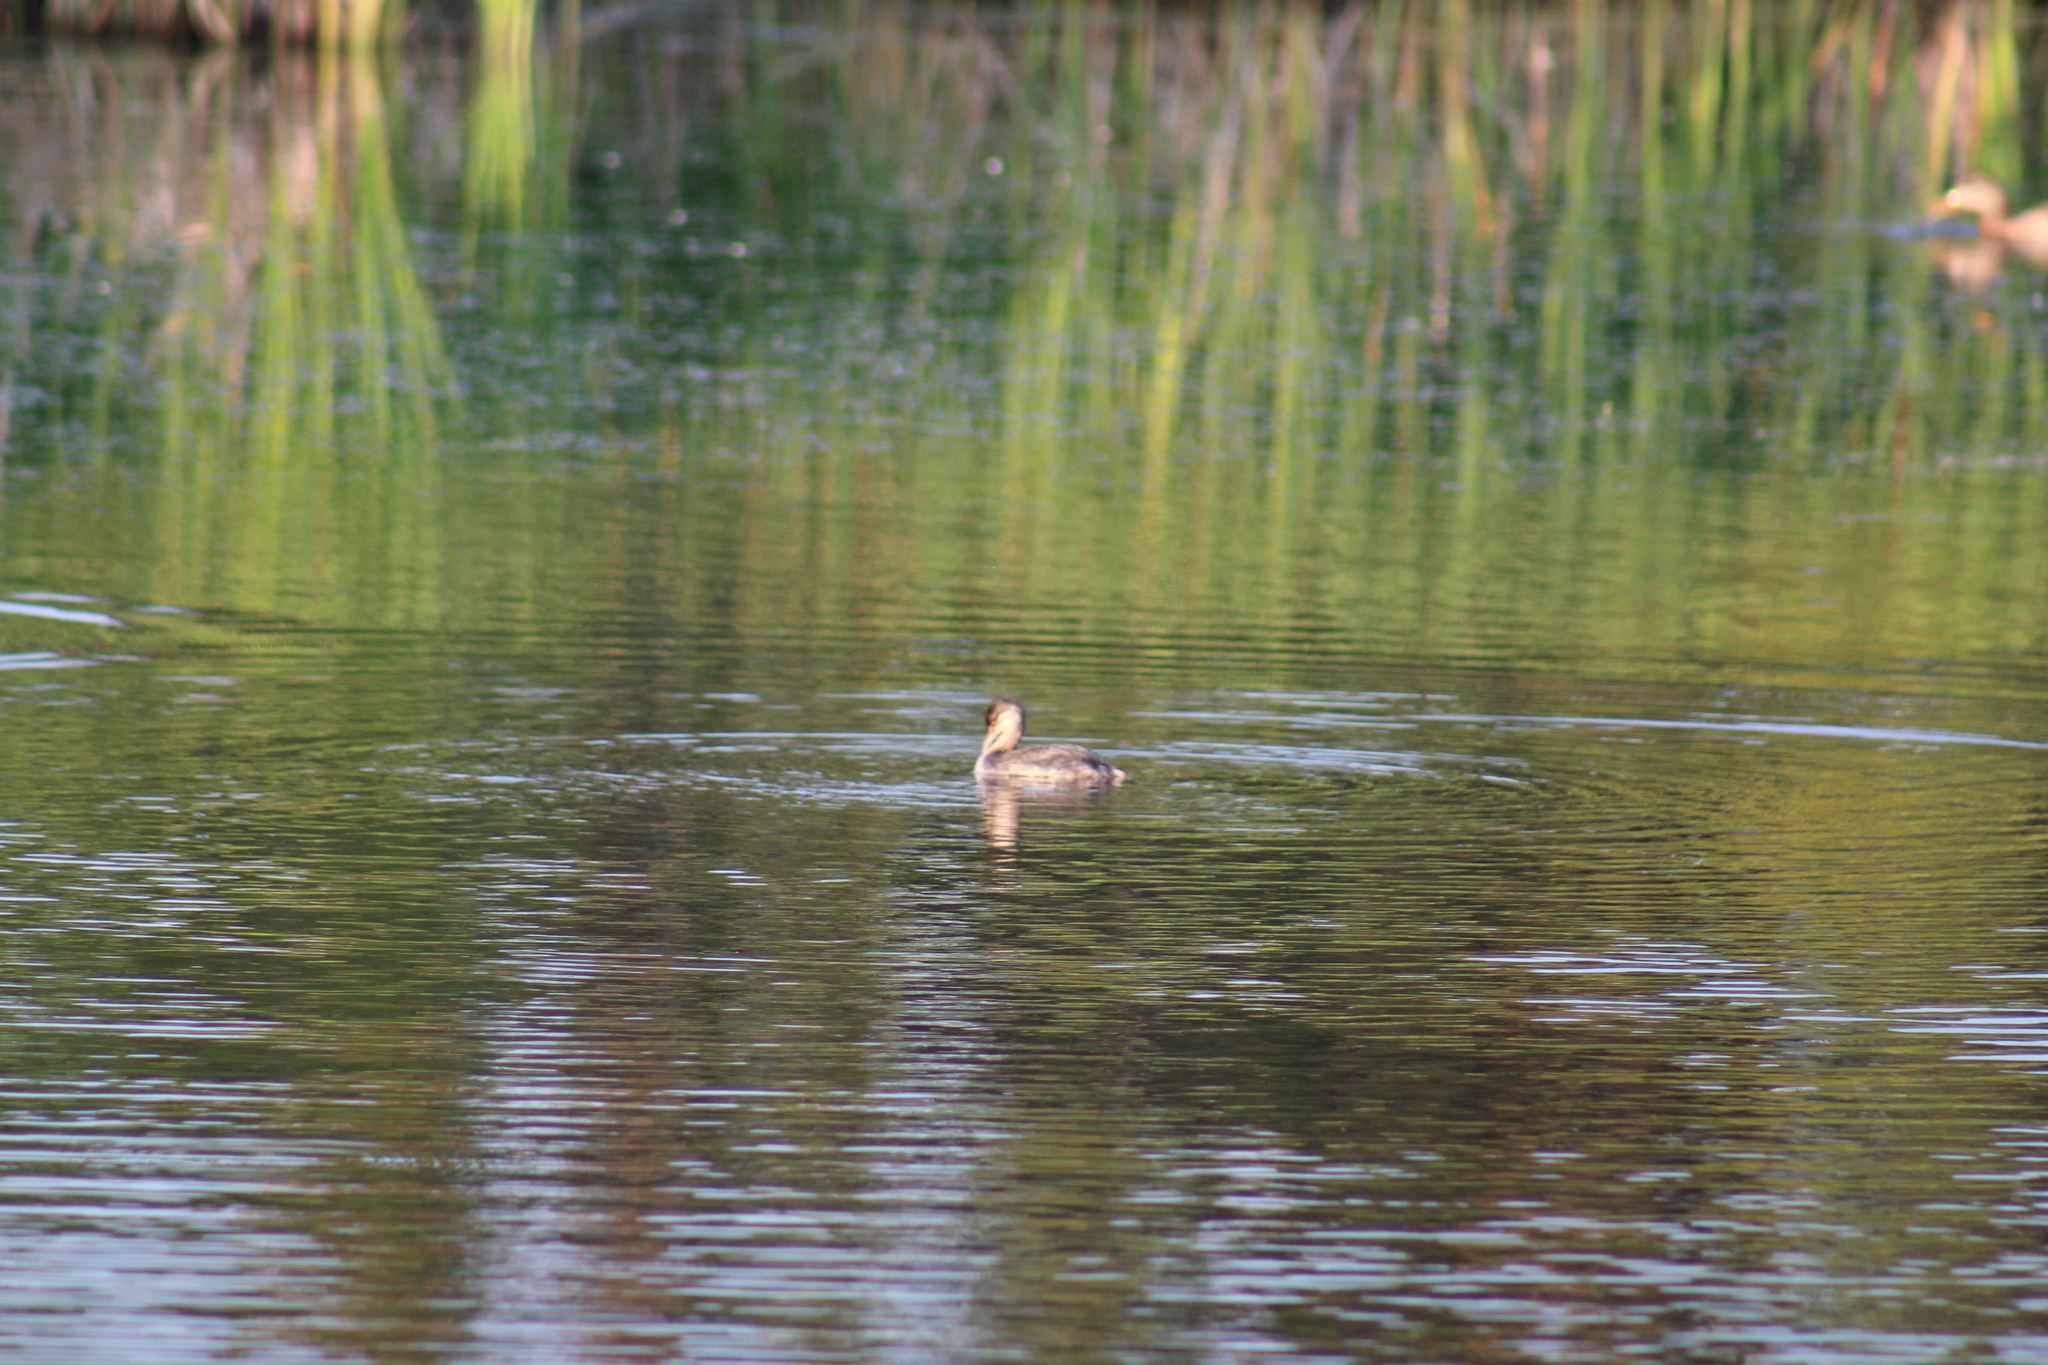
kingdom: Animalia
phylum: Chordata
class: Aves
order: Podicipediformes
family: Podicipedidae
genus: Podiceps
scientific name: Podiceps grisegena
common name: Red-necked grebe
